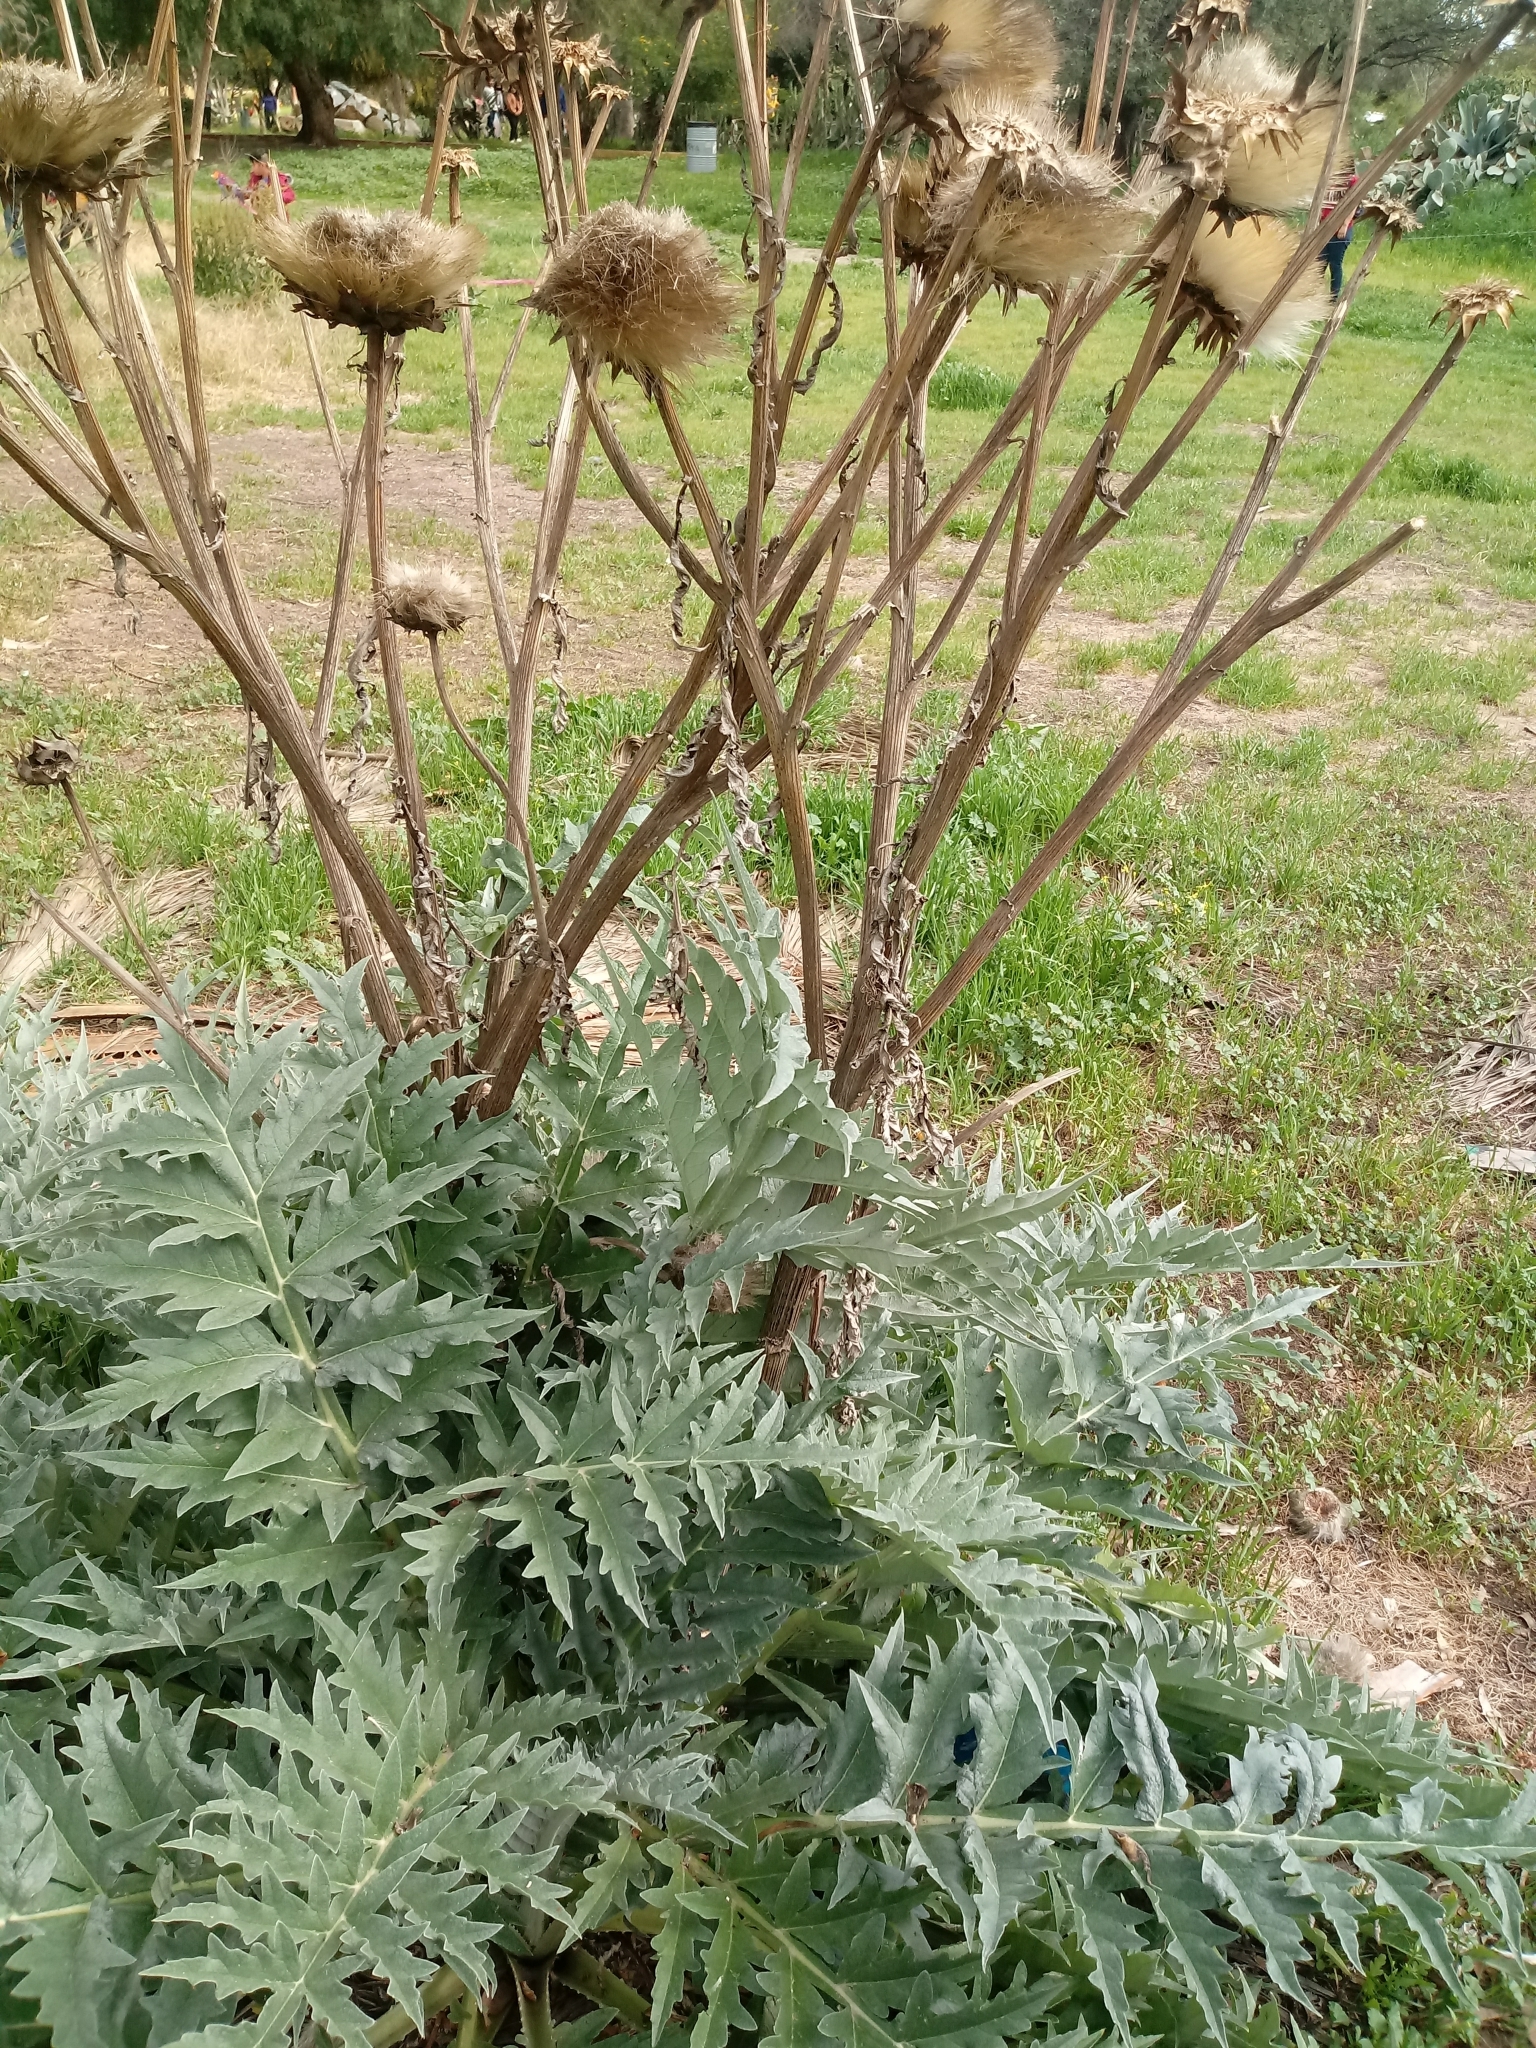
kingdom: Plantae
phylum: Tracheophyta
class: Magnoliopsida
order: Asterales
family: Asteraceae
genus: Cynara
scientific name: Cynara cardunculus
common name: Globe artichoke
